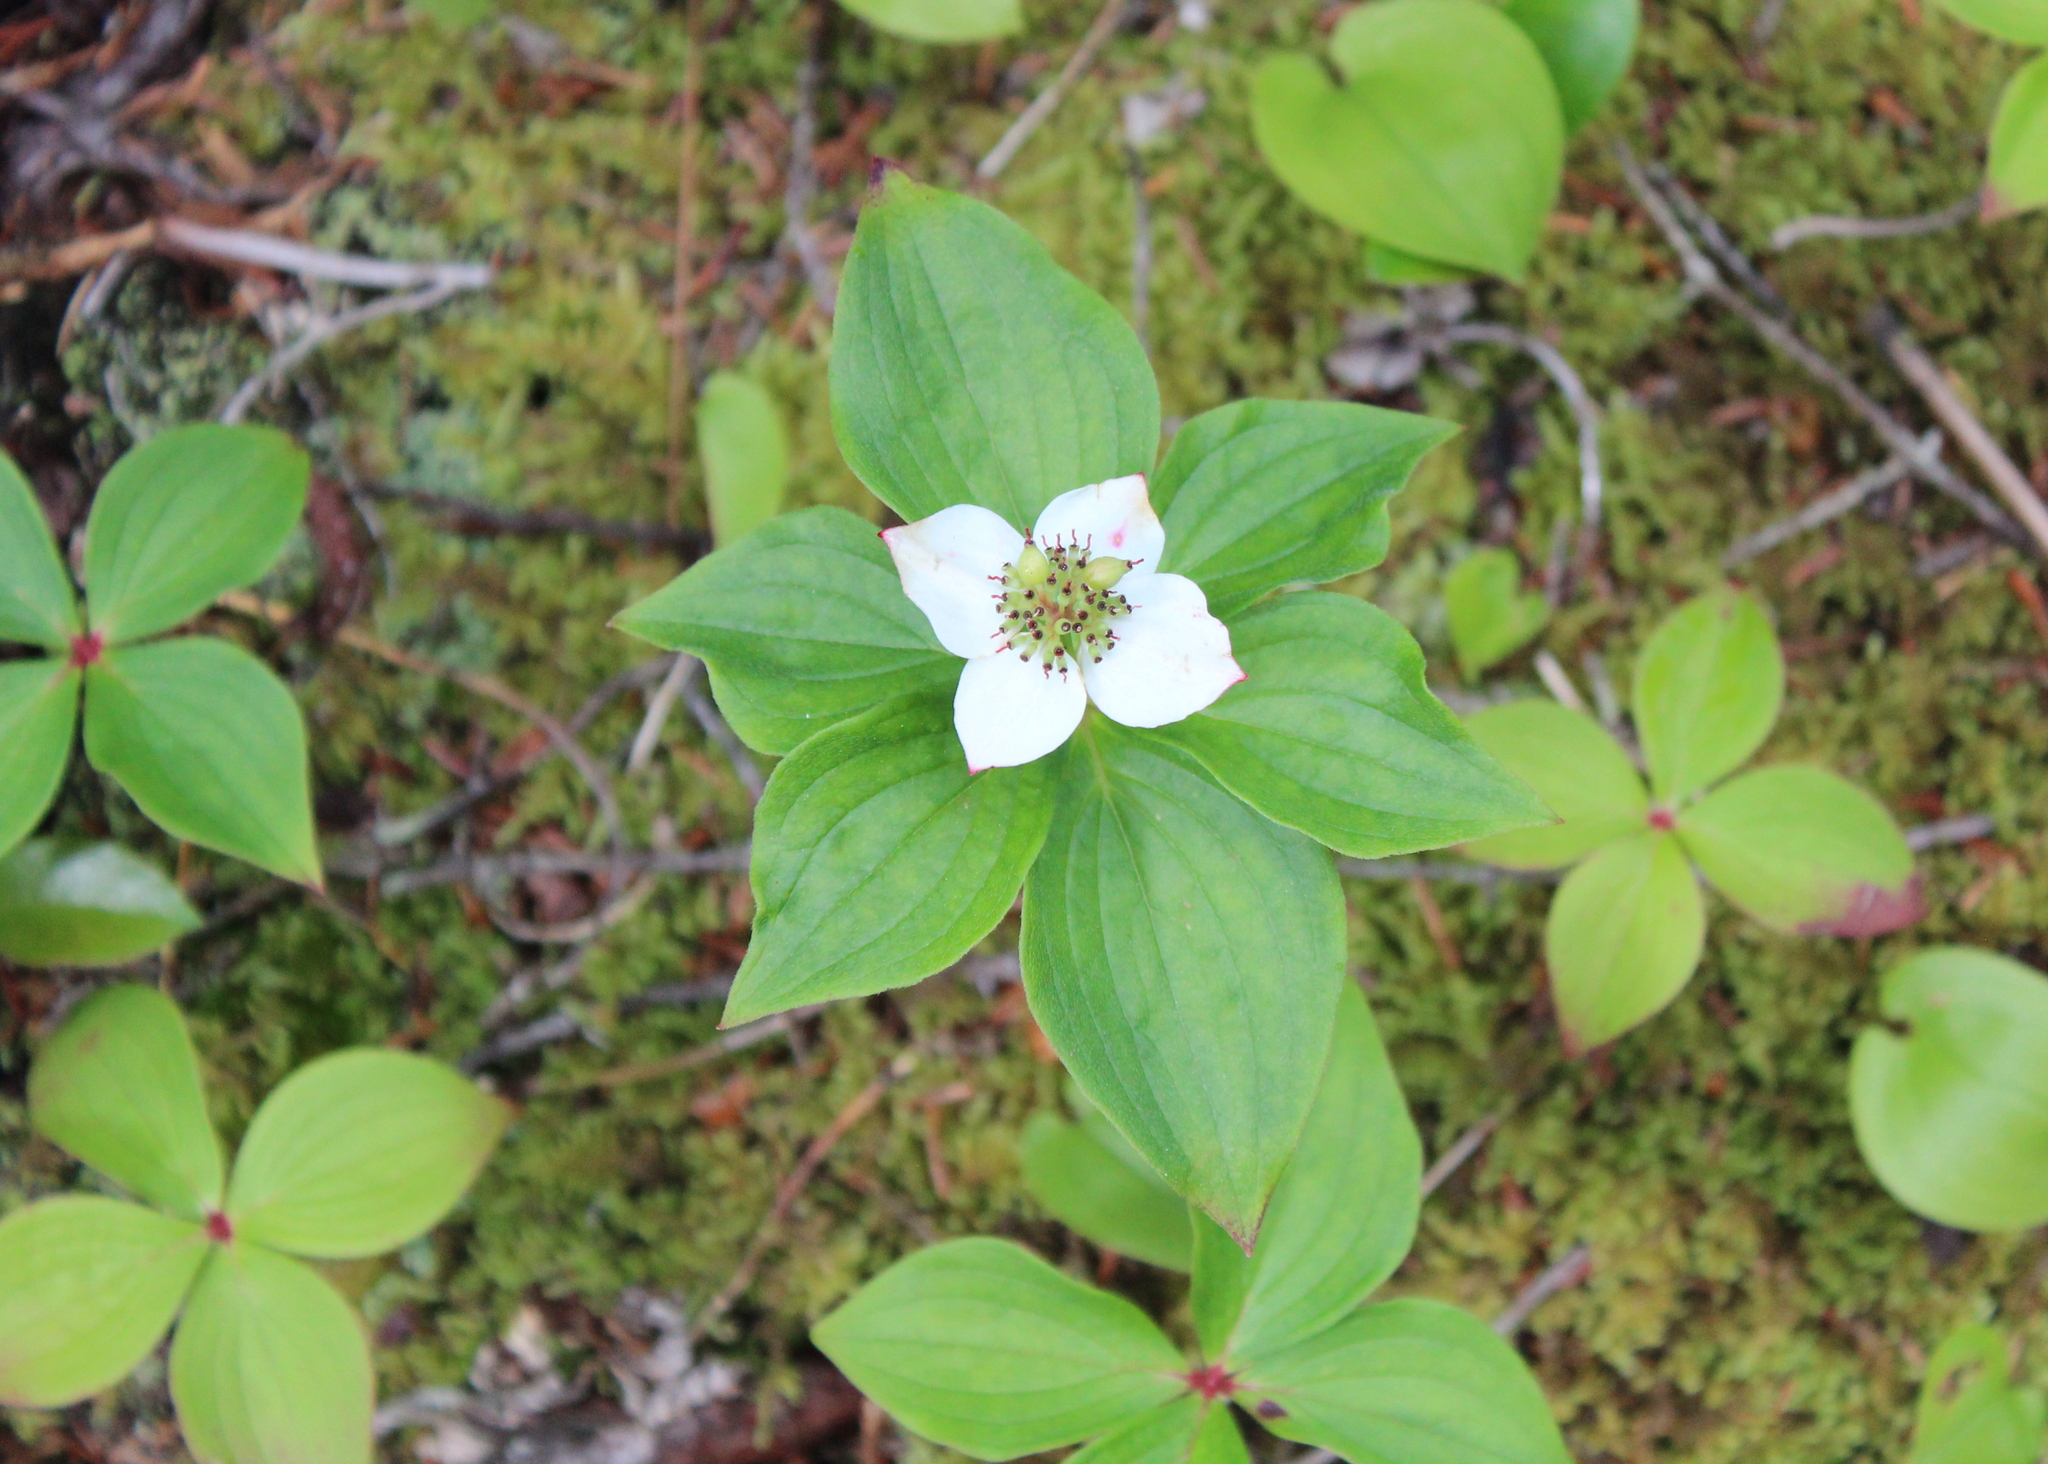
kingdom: Plantae
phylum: Tracheophyta
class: Magnoliopsida
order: Cornales
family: Cornaceae
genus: Cornus
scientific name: Cornus canadensis
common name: Creeping dogwood
